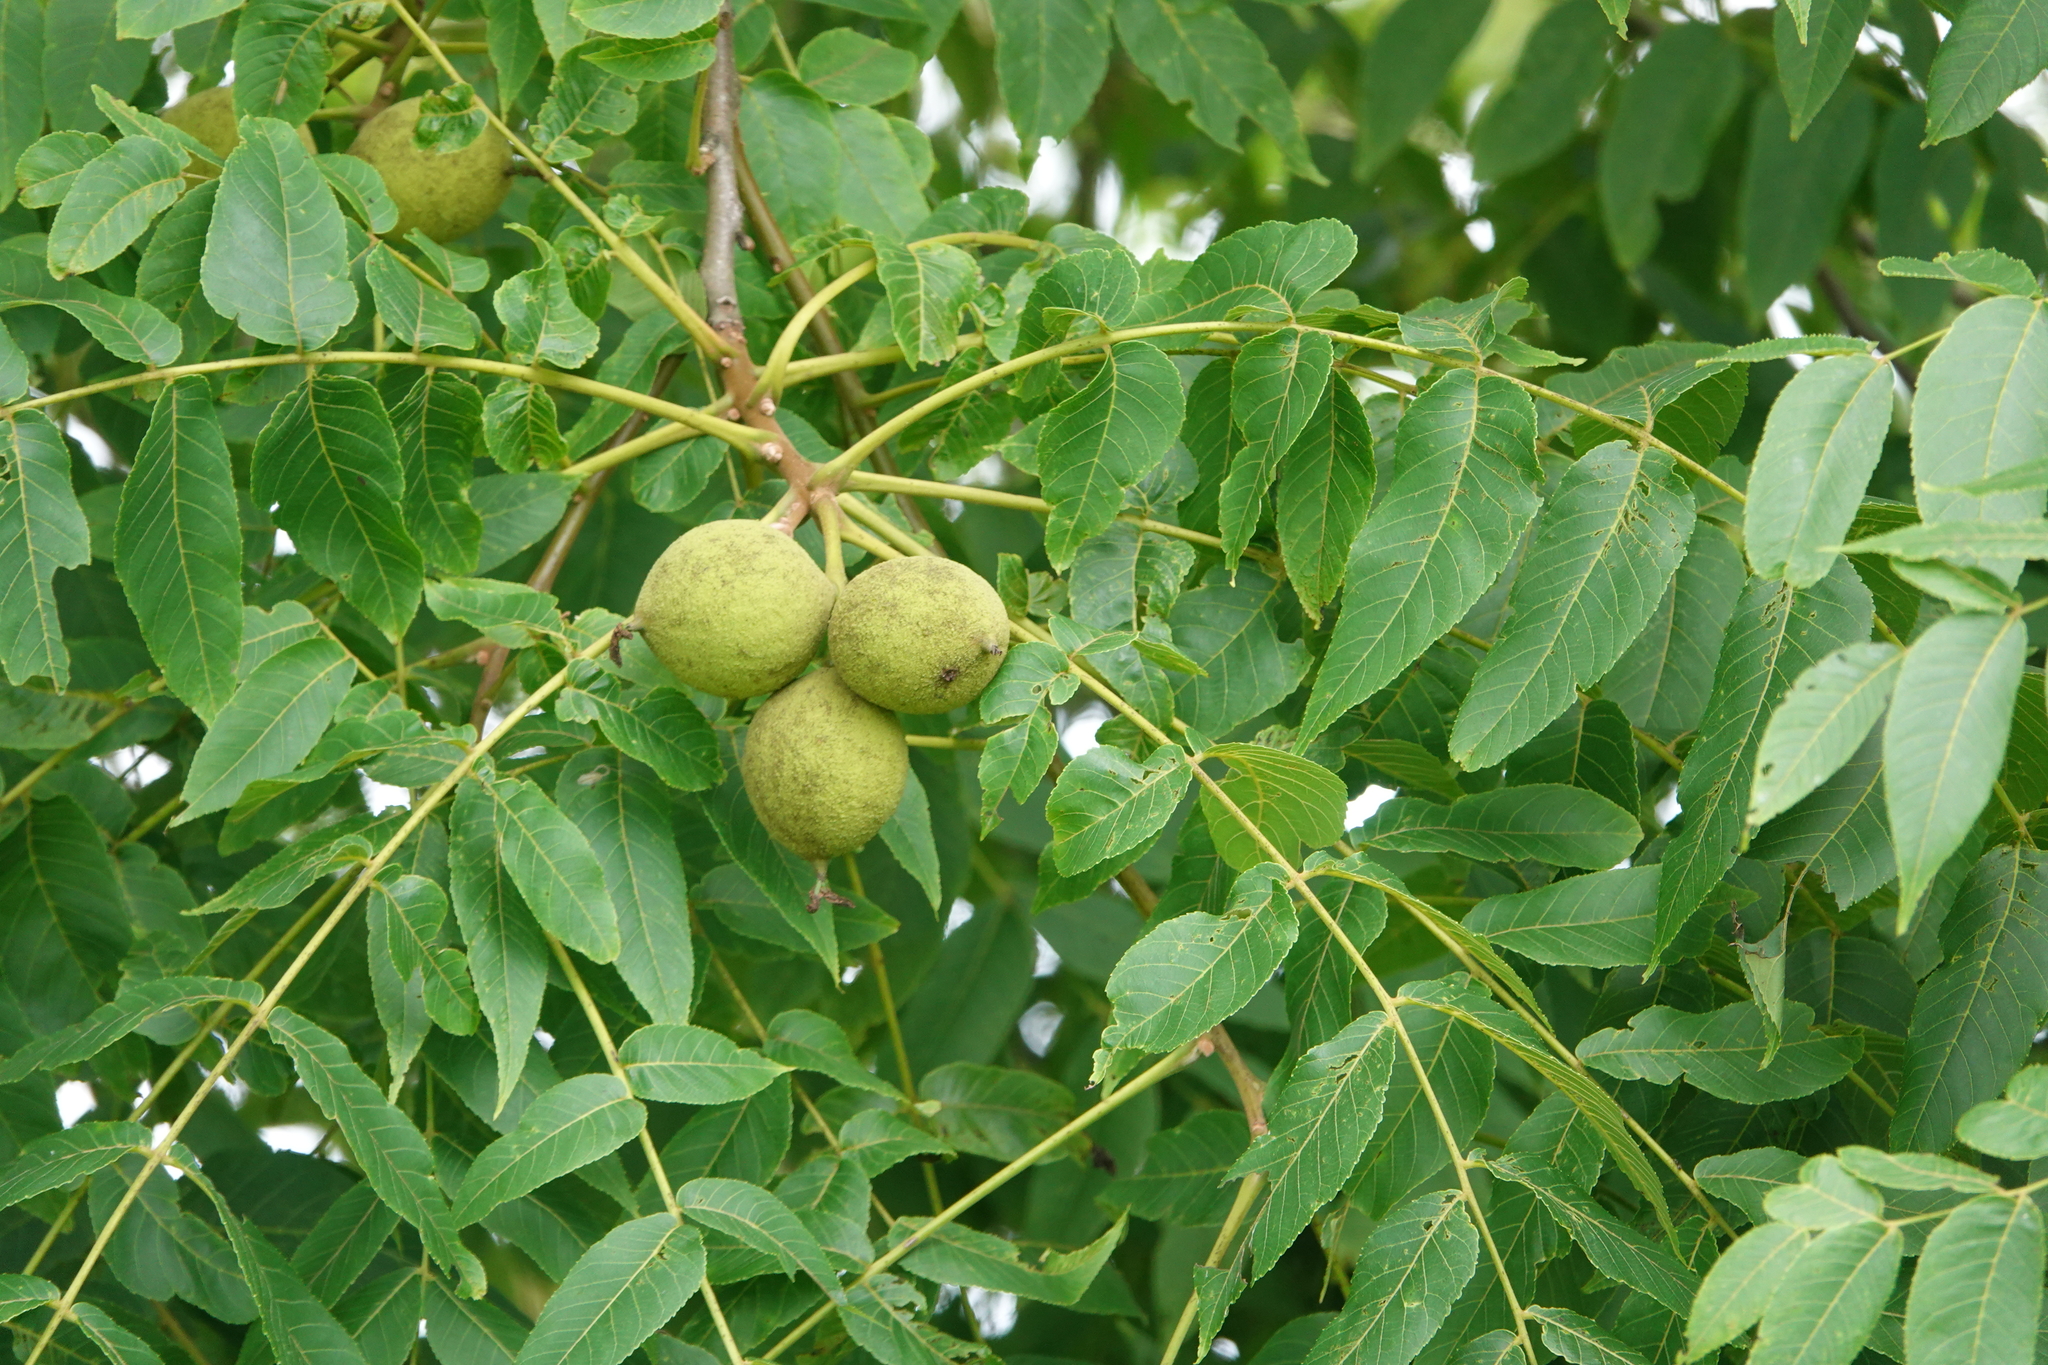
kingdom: Plantae
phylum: Tracheophyta
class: Magnoliopsida
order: Fagales
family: Juglandaceae
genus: Juglans
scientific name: Juglans nigra
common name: Black walnut
